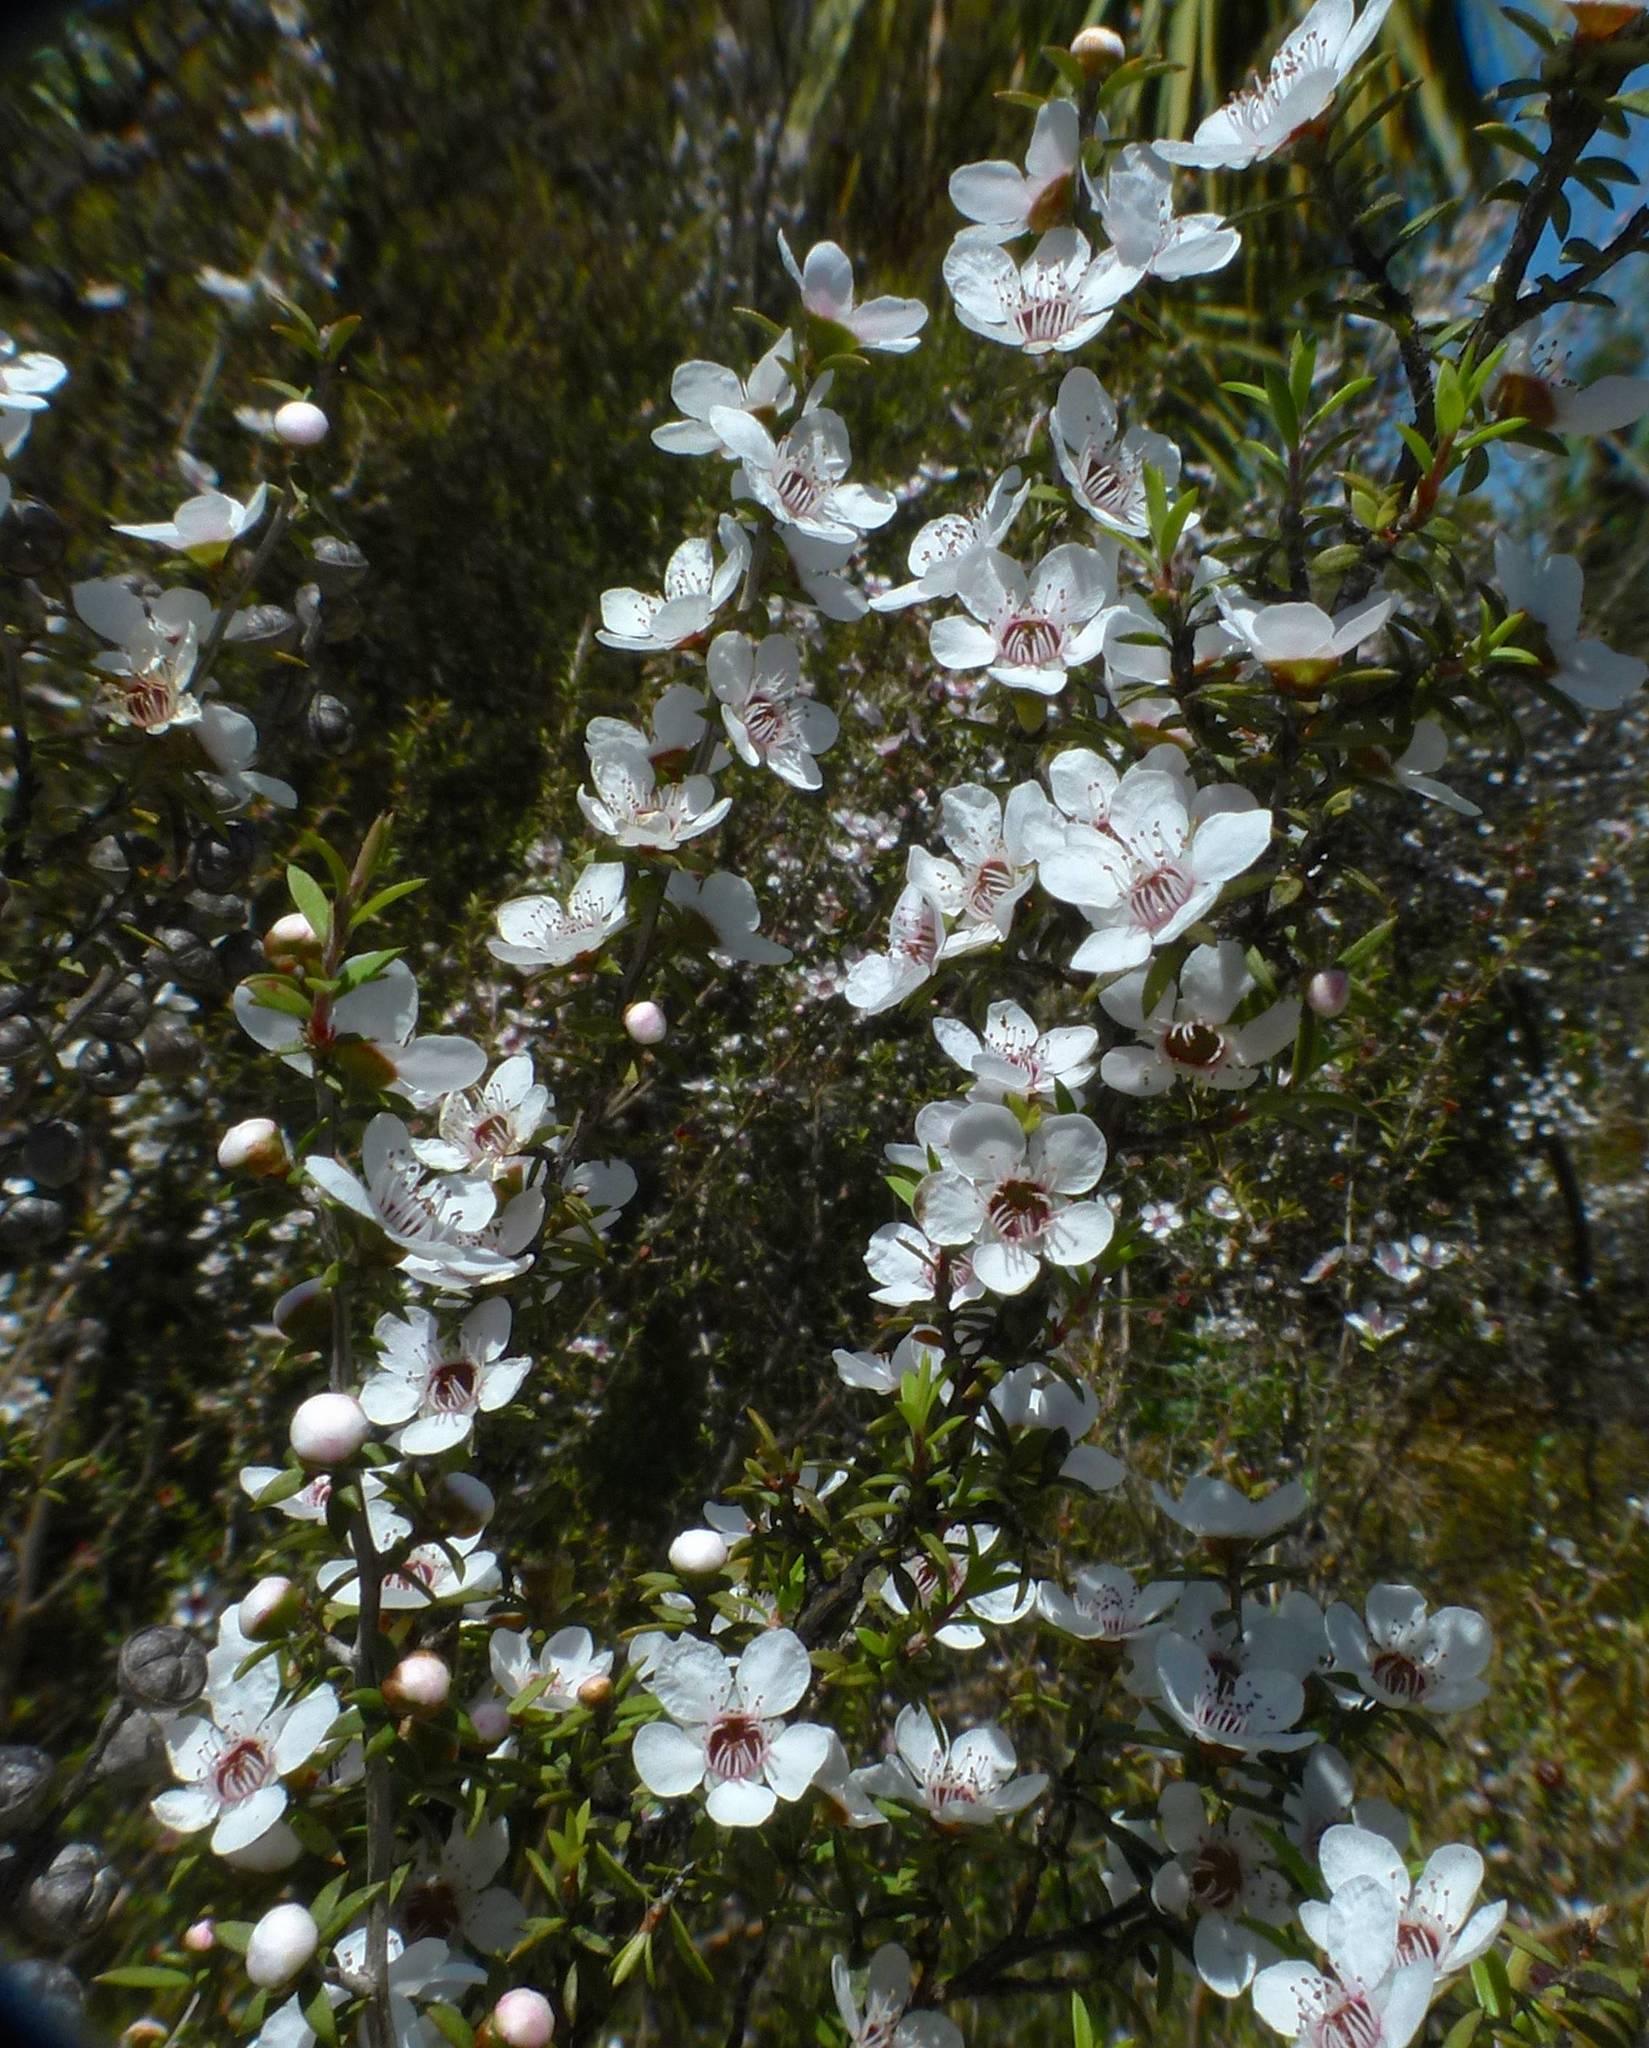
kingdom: Plantae
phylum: Tracheophyta
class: Magnoliopsida
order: Myrtales
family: Myrtaceae
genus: Leptospermum
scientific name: Leptospermum scoparium
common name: Broom tea-tree
